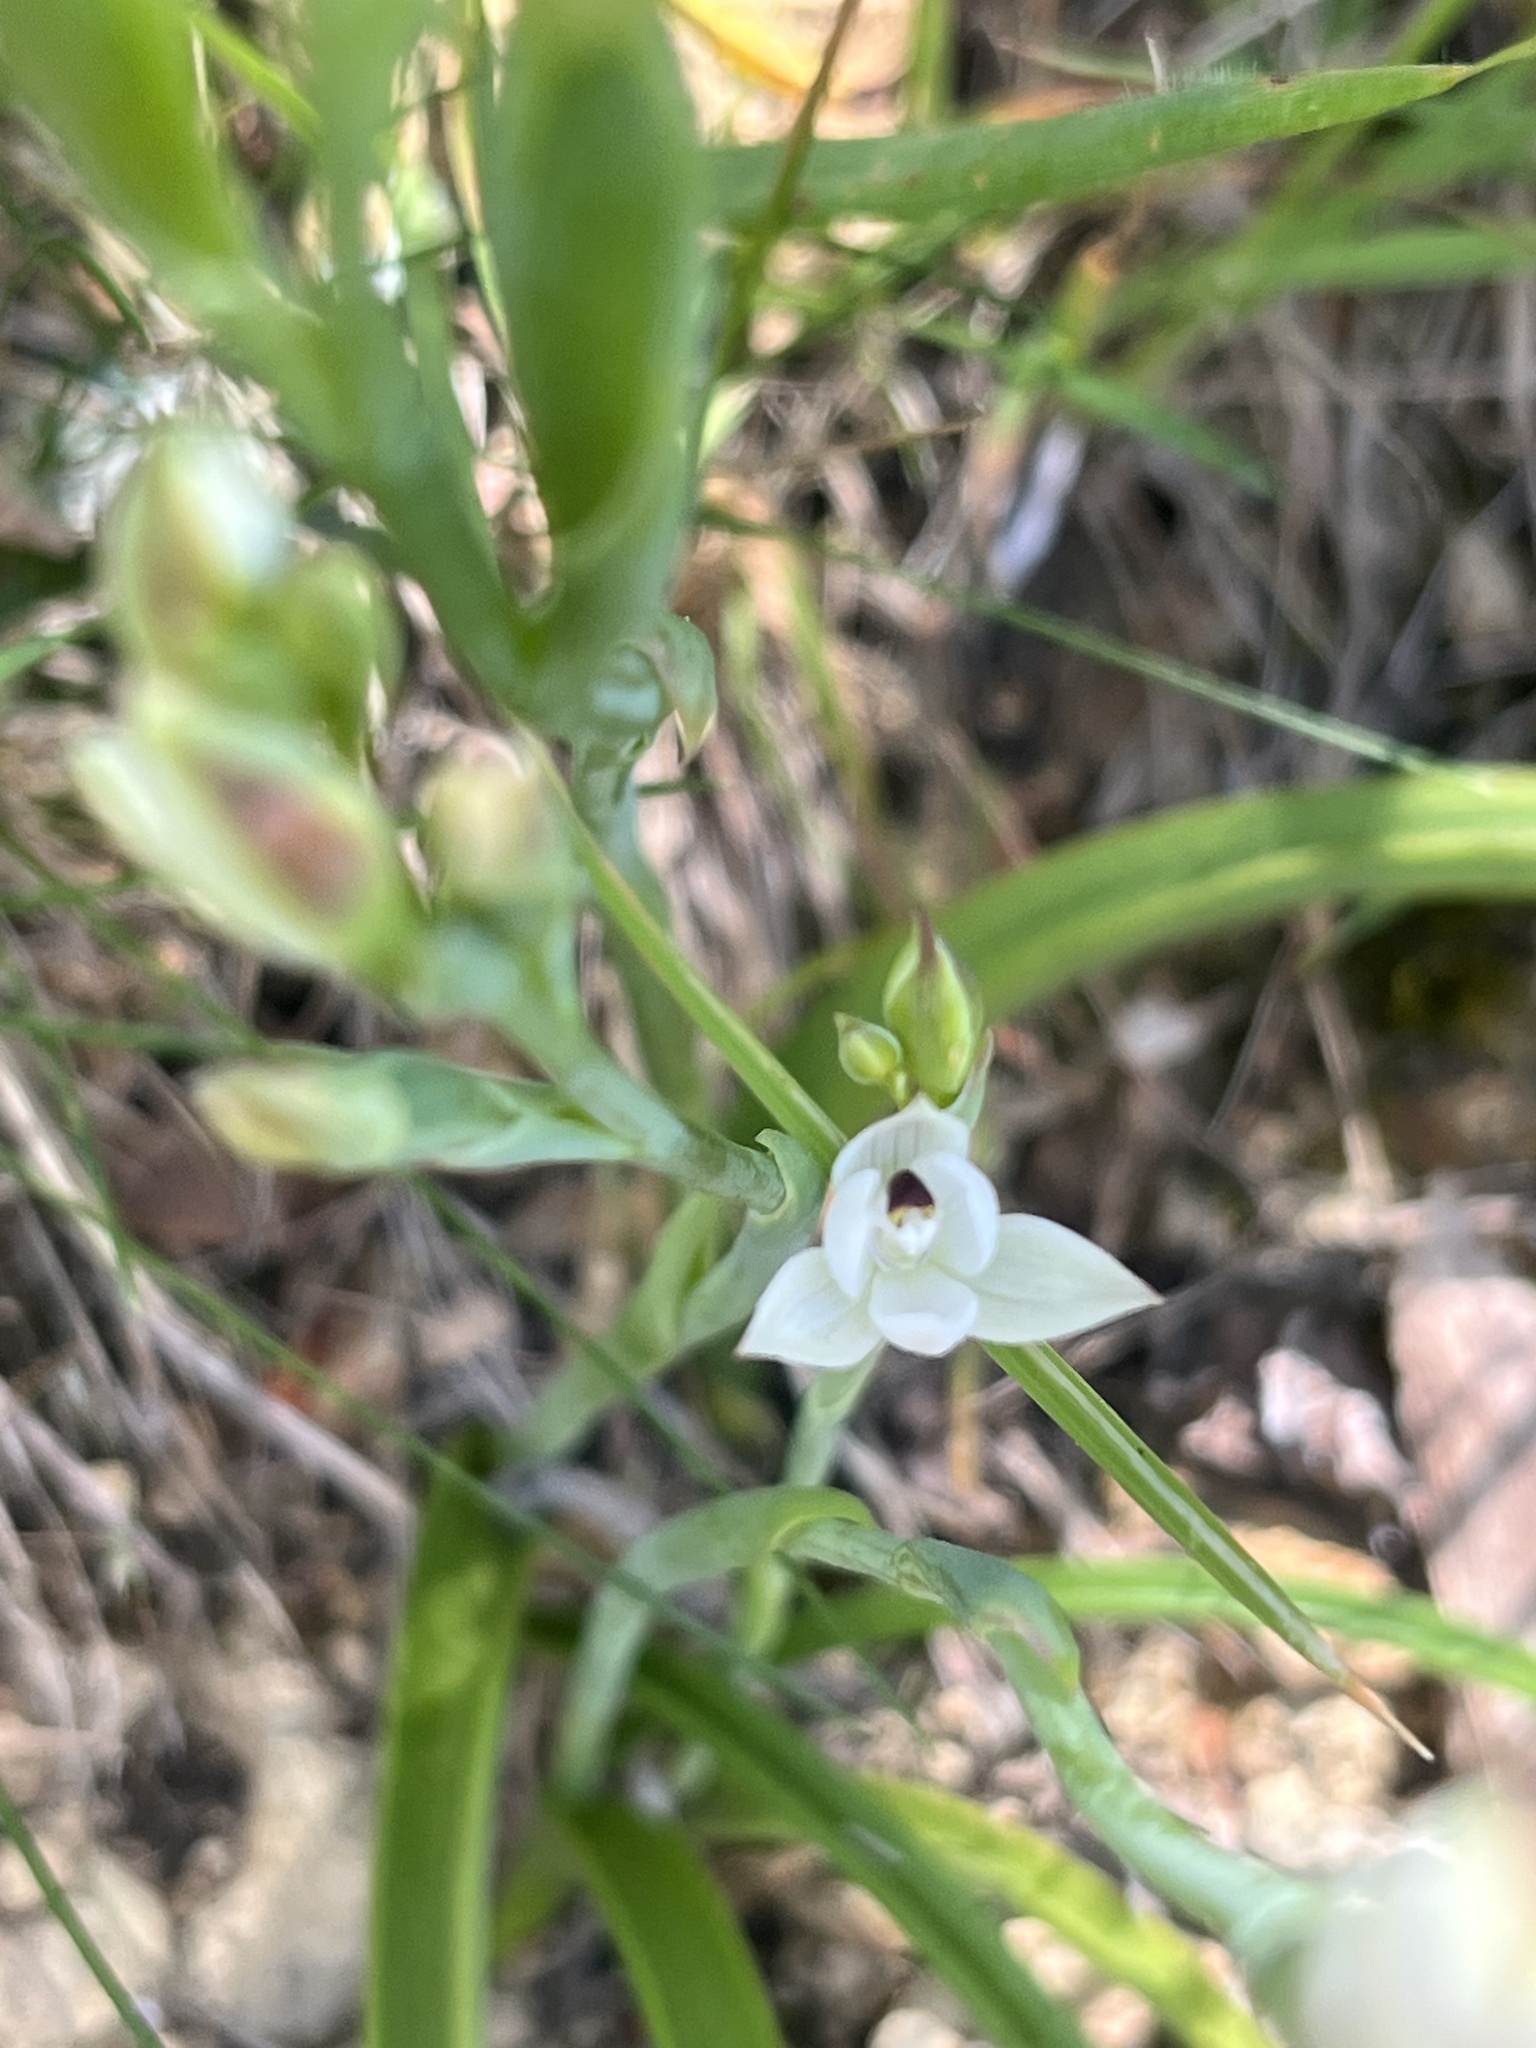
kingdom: Plantae
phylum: Tracheophyta
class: Liliopsida
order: Asparagales
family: Orchidaceae
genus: Thelymitra
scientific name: Thelymitra longifolia
